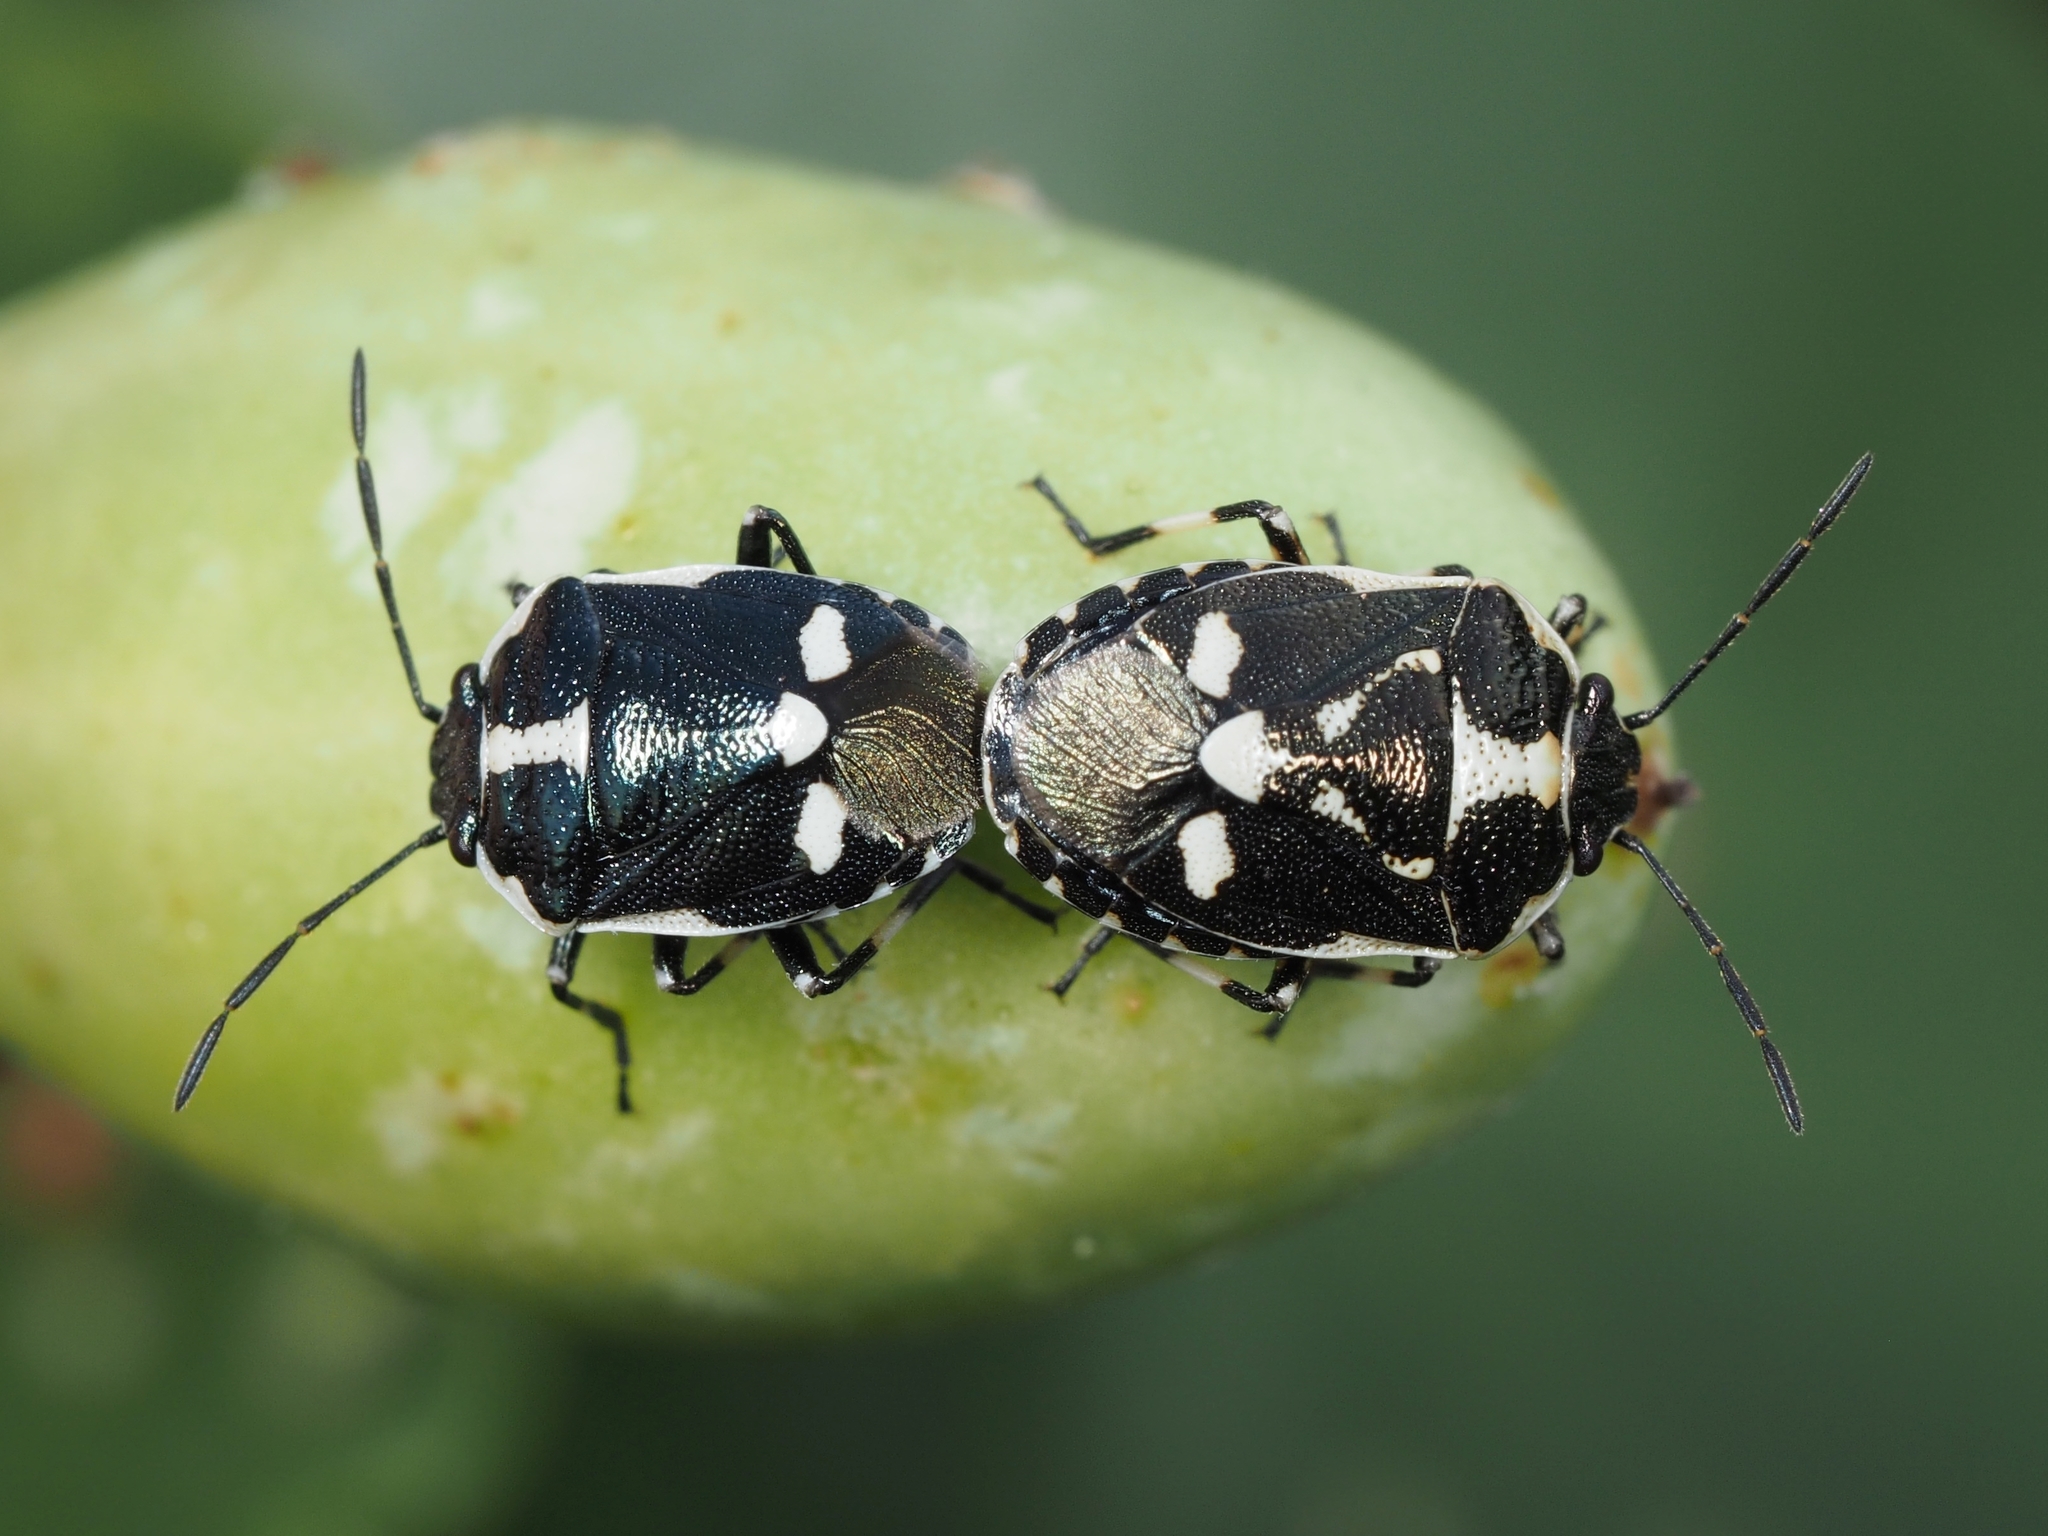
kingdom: Animalia
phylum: Arthropoda
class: Insecta
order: Hemiptera
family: Pentatomidae
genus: Eurydema
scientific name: Eurydema oleracea
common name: Cabbage bug
